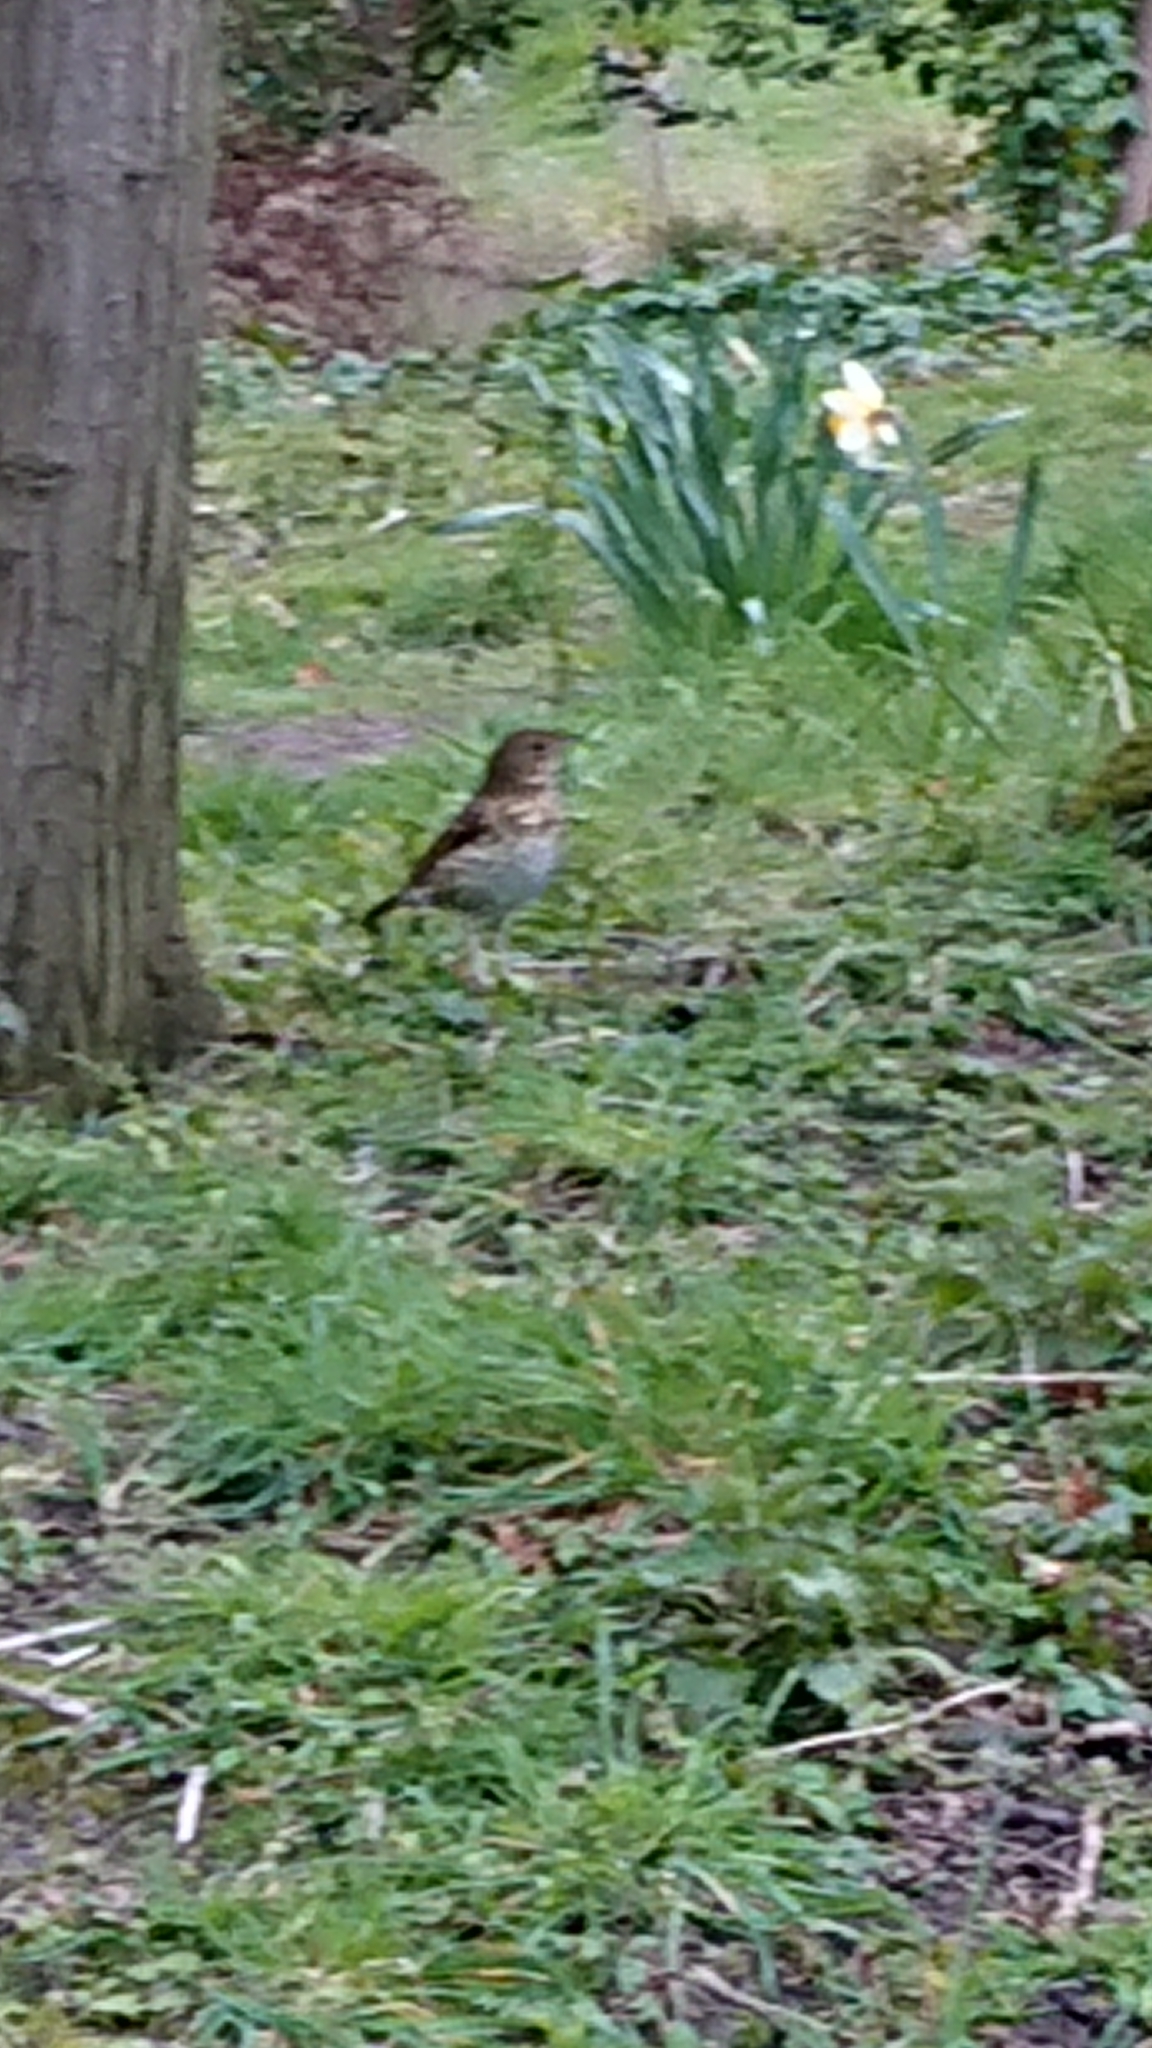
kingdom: Animalia
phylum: Chordata
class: Aves
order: Passeriformes
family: Turdidae
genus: Turdus
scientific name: Turdus philomelos
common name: Song thrush
